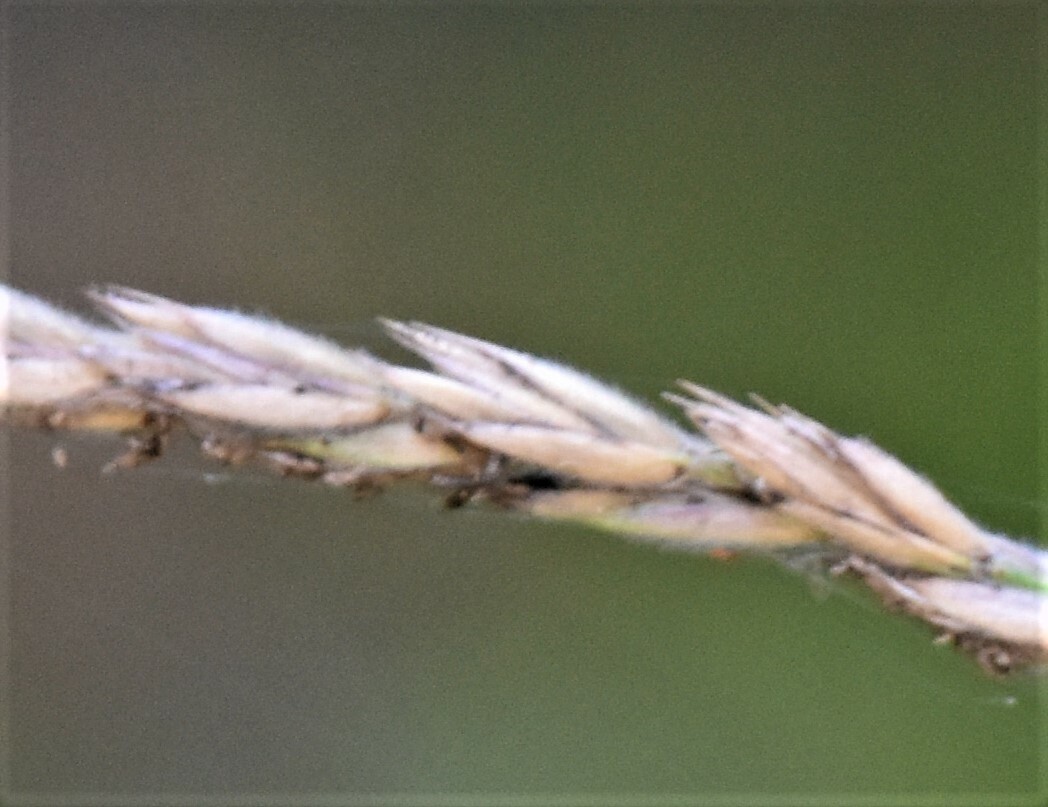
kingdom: Plantae
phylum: Tracheophyta
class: Liliopsida
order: Poales
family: Poaceae
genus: Leymus
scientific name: Leymus innovatus
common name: Boreal wild rye
